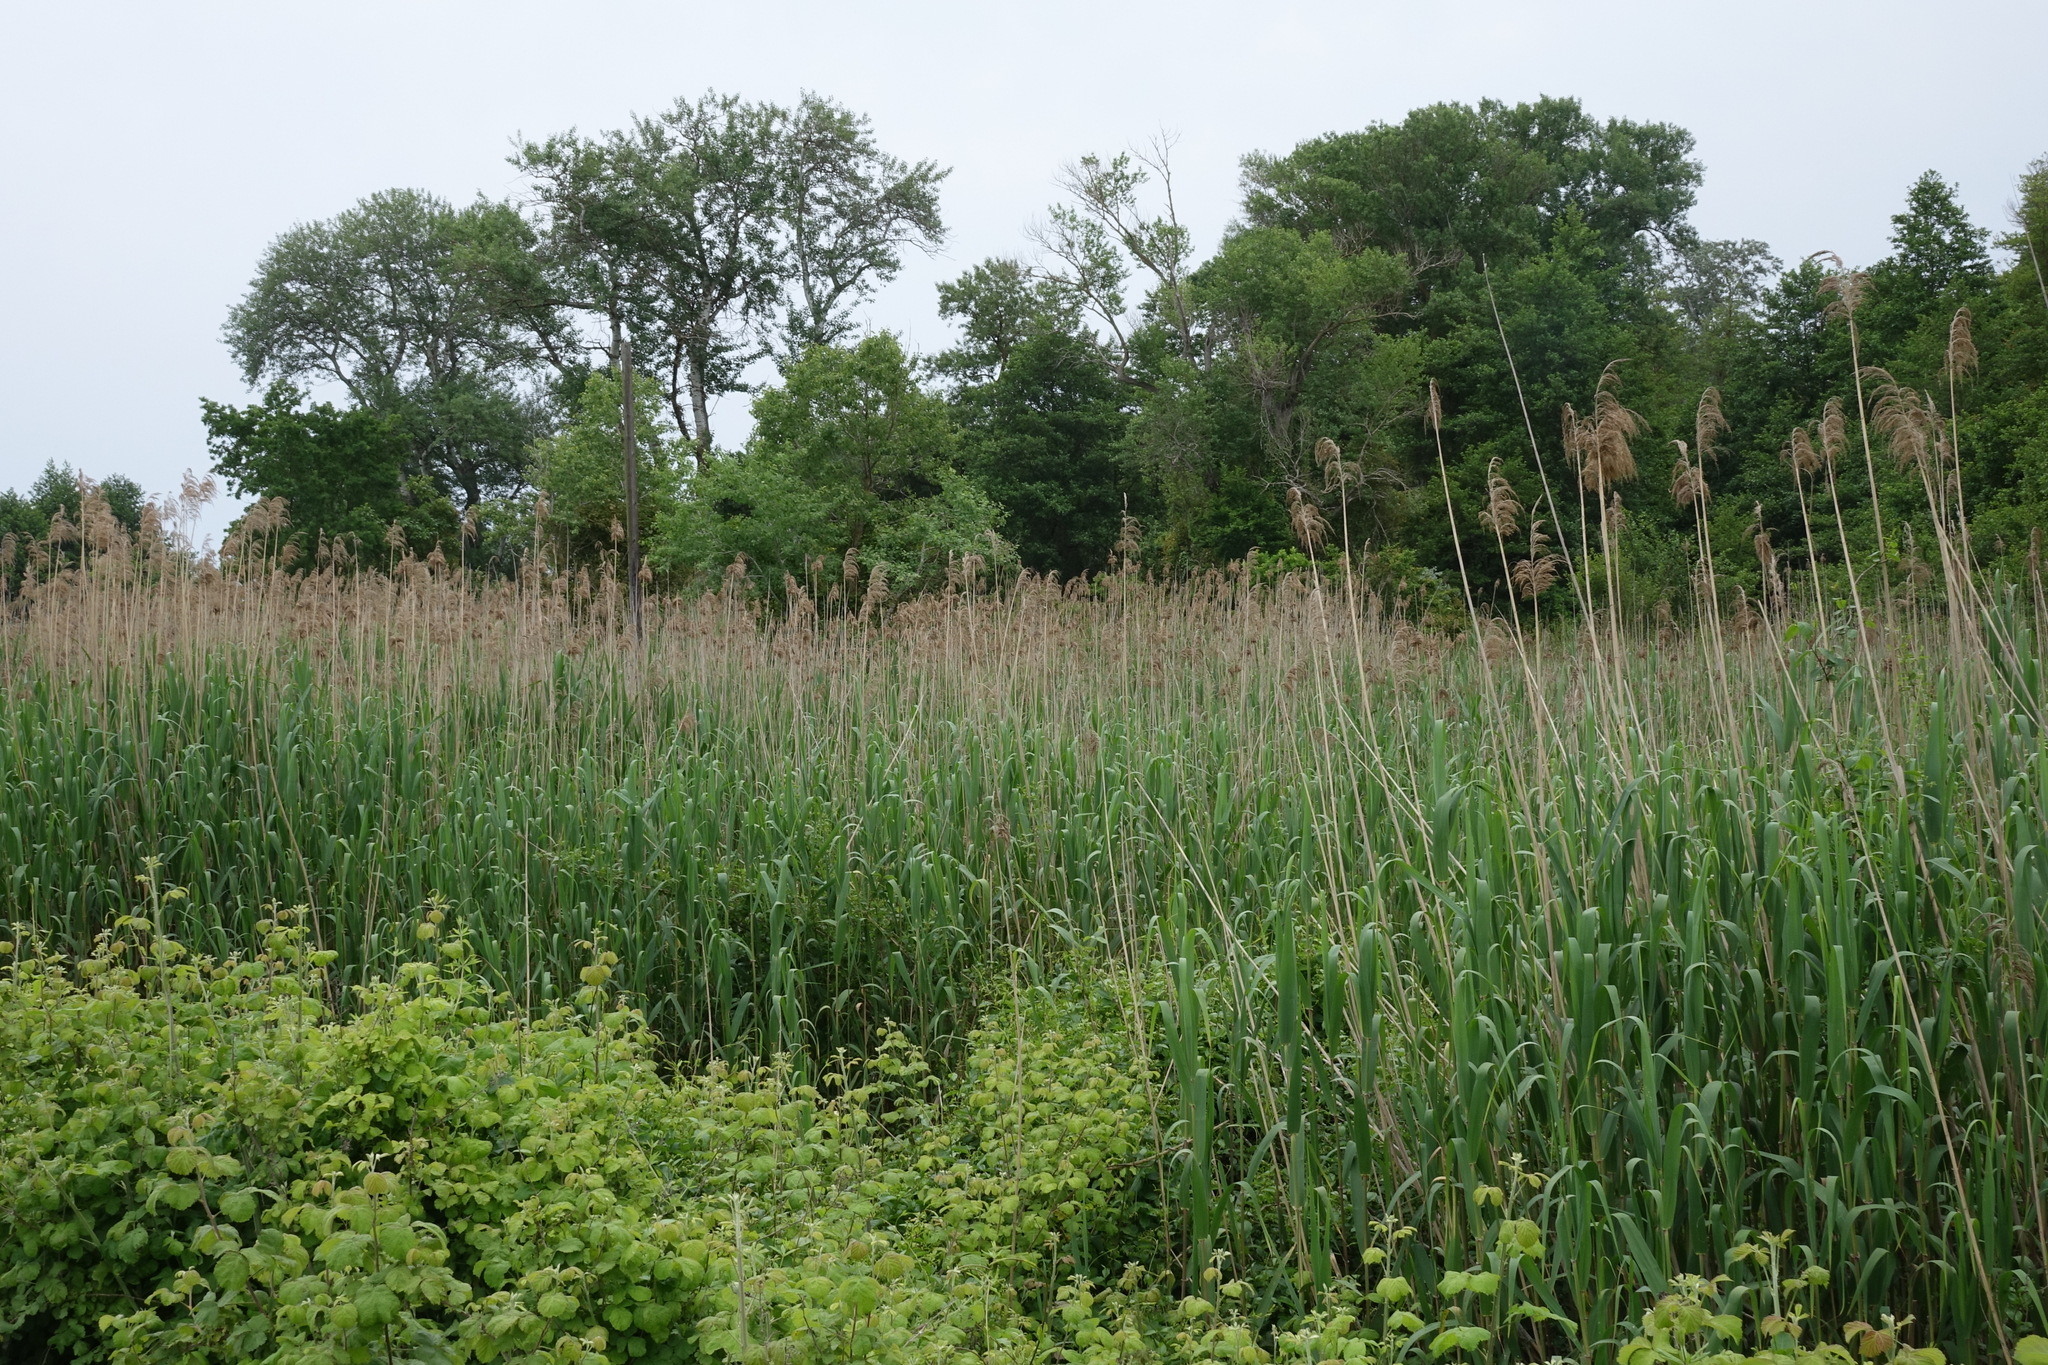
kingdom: Plantae
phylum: Tracheophyta
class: Liliopsida
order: Poales
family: Poaceae
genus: Phragmites
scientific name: Phragmites australis
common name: Common reed
